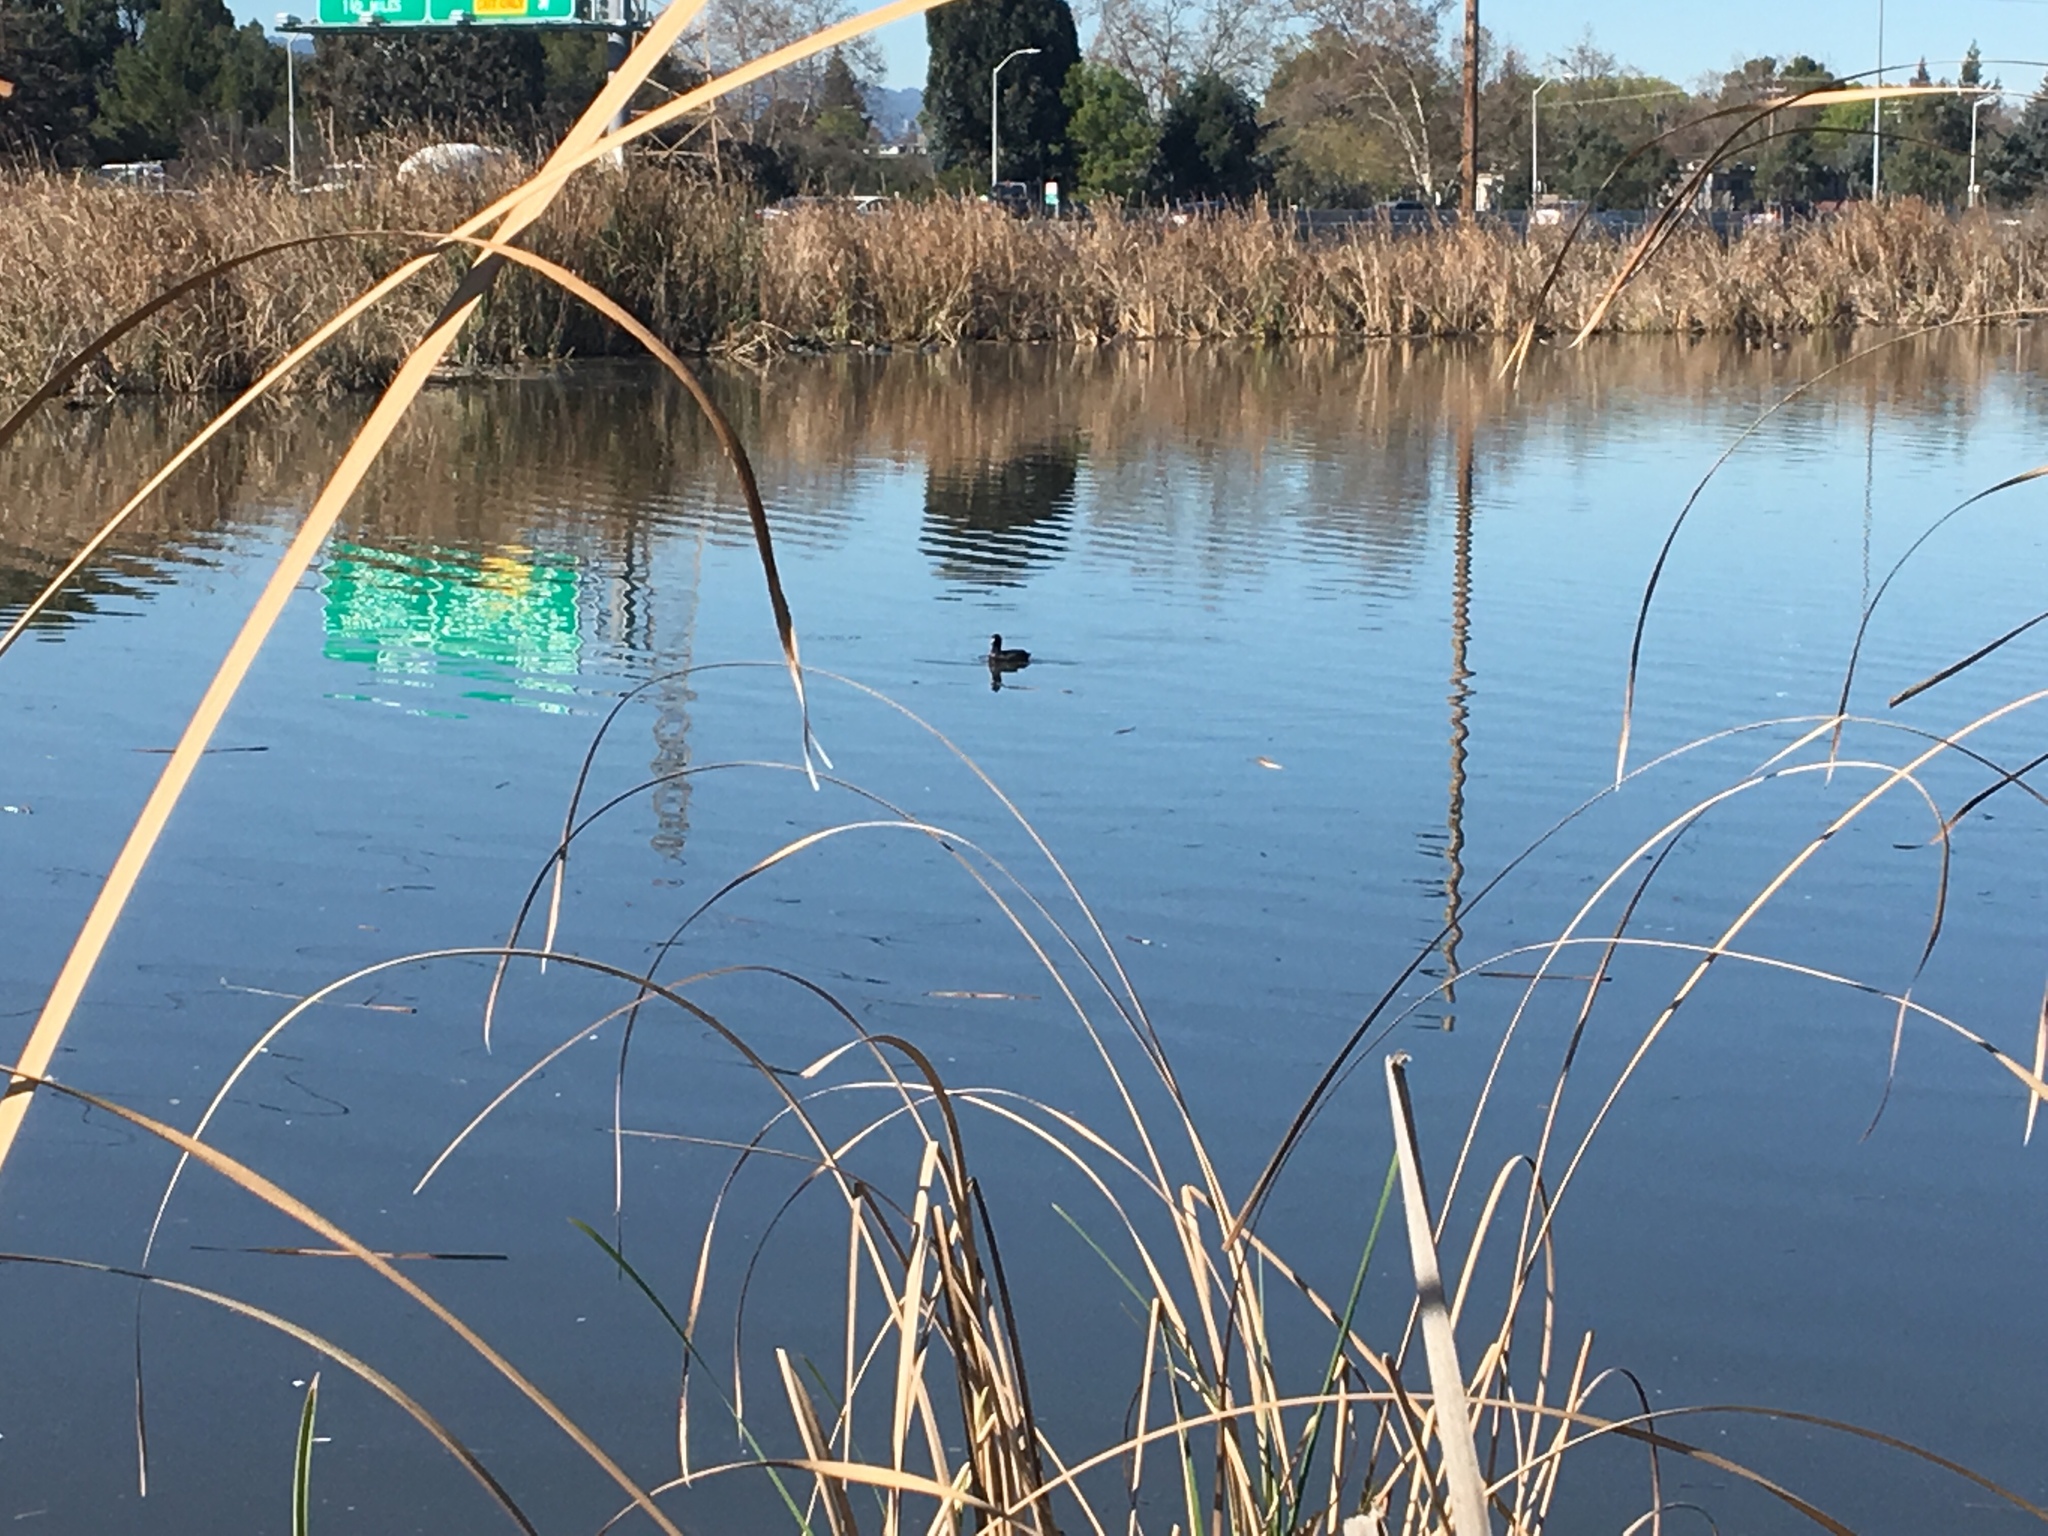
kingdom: Animalia
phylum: Chordata
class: Aves
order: Gruiformes
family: Rallidae
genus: Fulica
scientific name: Fulica americana
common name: American coot
